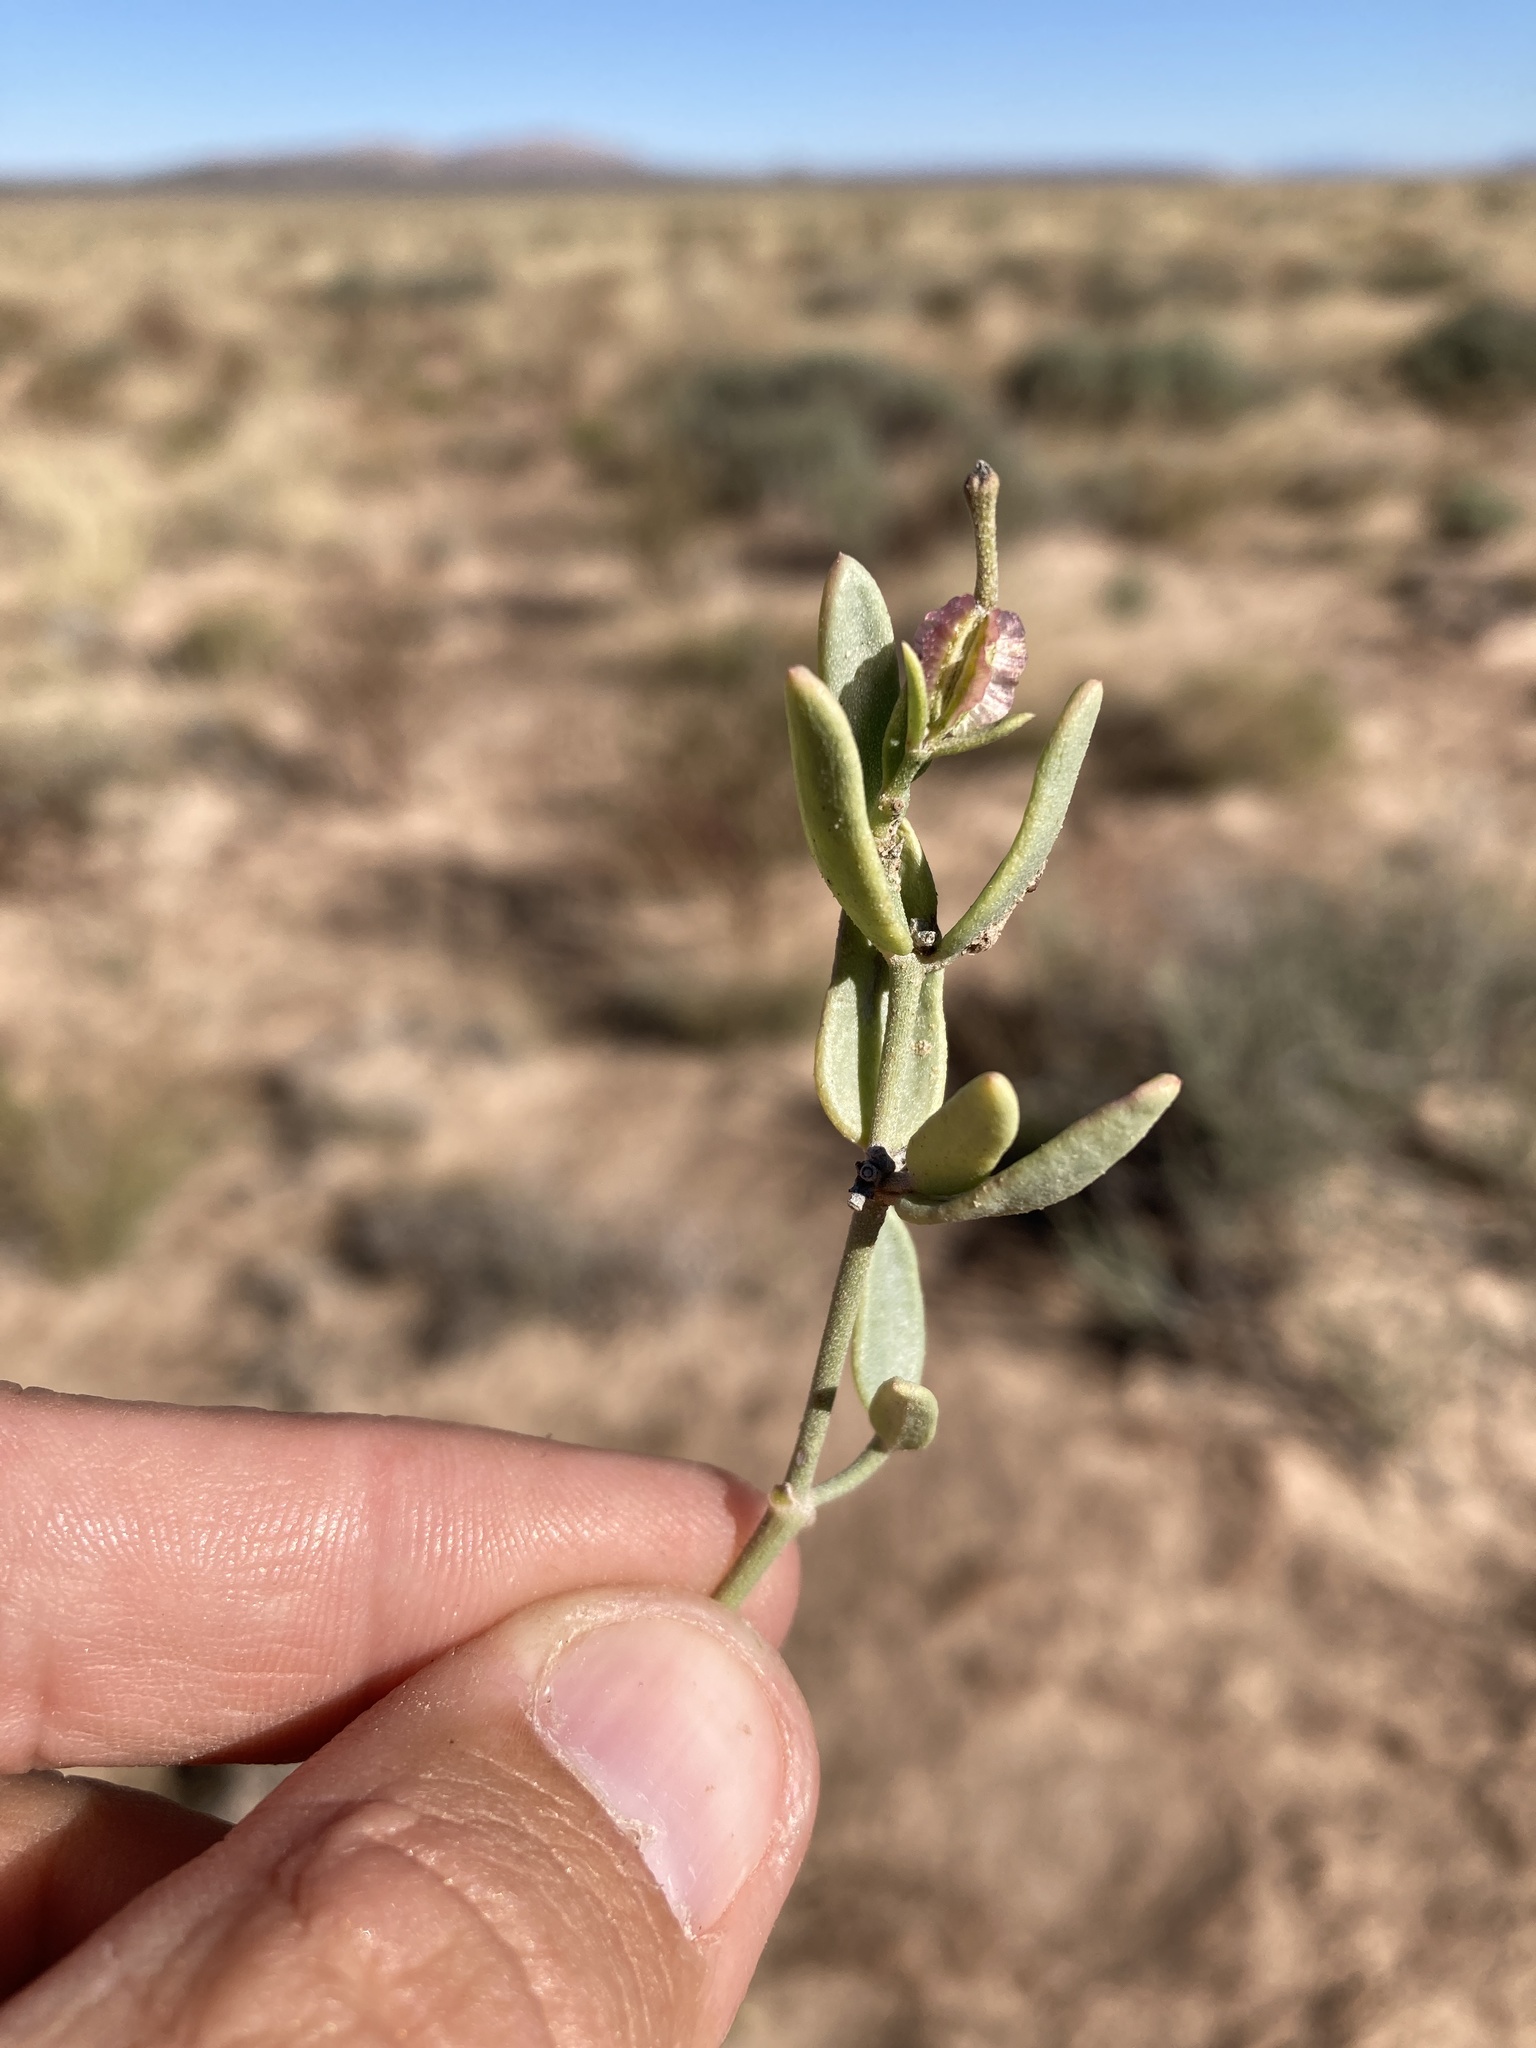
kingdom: Plantae
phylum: Tracheophyta
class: Magnoliopsida
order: Caryophyllales
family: Nyctaginaceae
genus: Acleisanthes
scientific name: Acleisanthes lanceolata
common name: Gypsum moonpod
